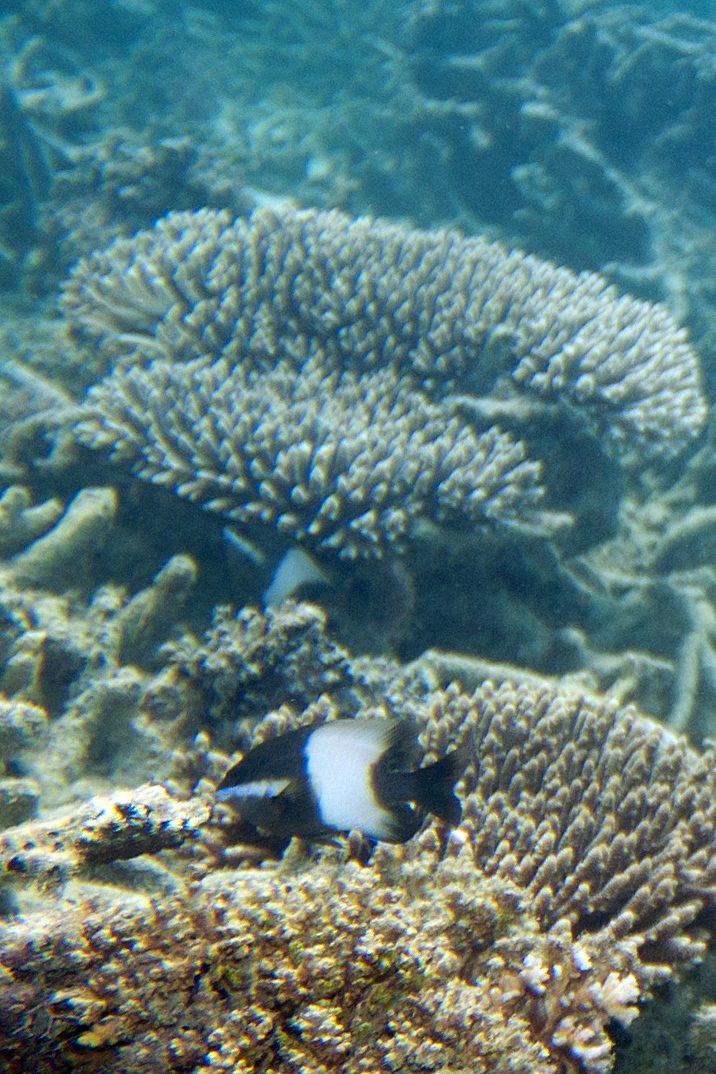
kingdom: Animalia
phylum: Chordata
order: Perciformes
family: Pomacentridae
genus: Stegastes
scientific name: Stegastes nigricans
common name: Dusky gregory
